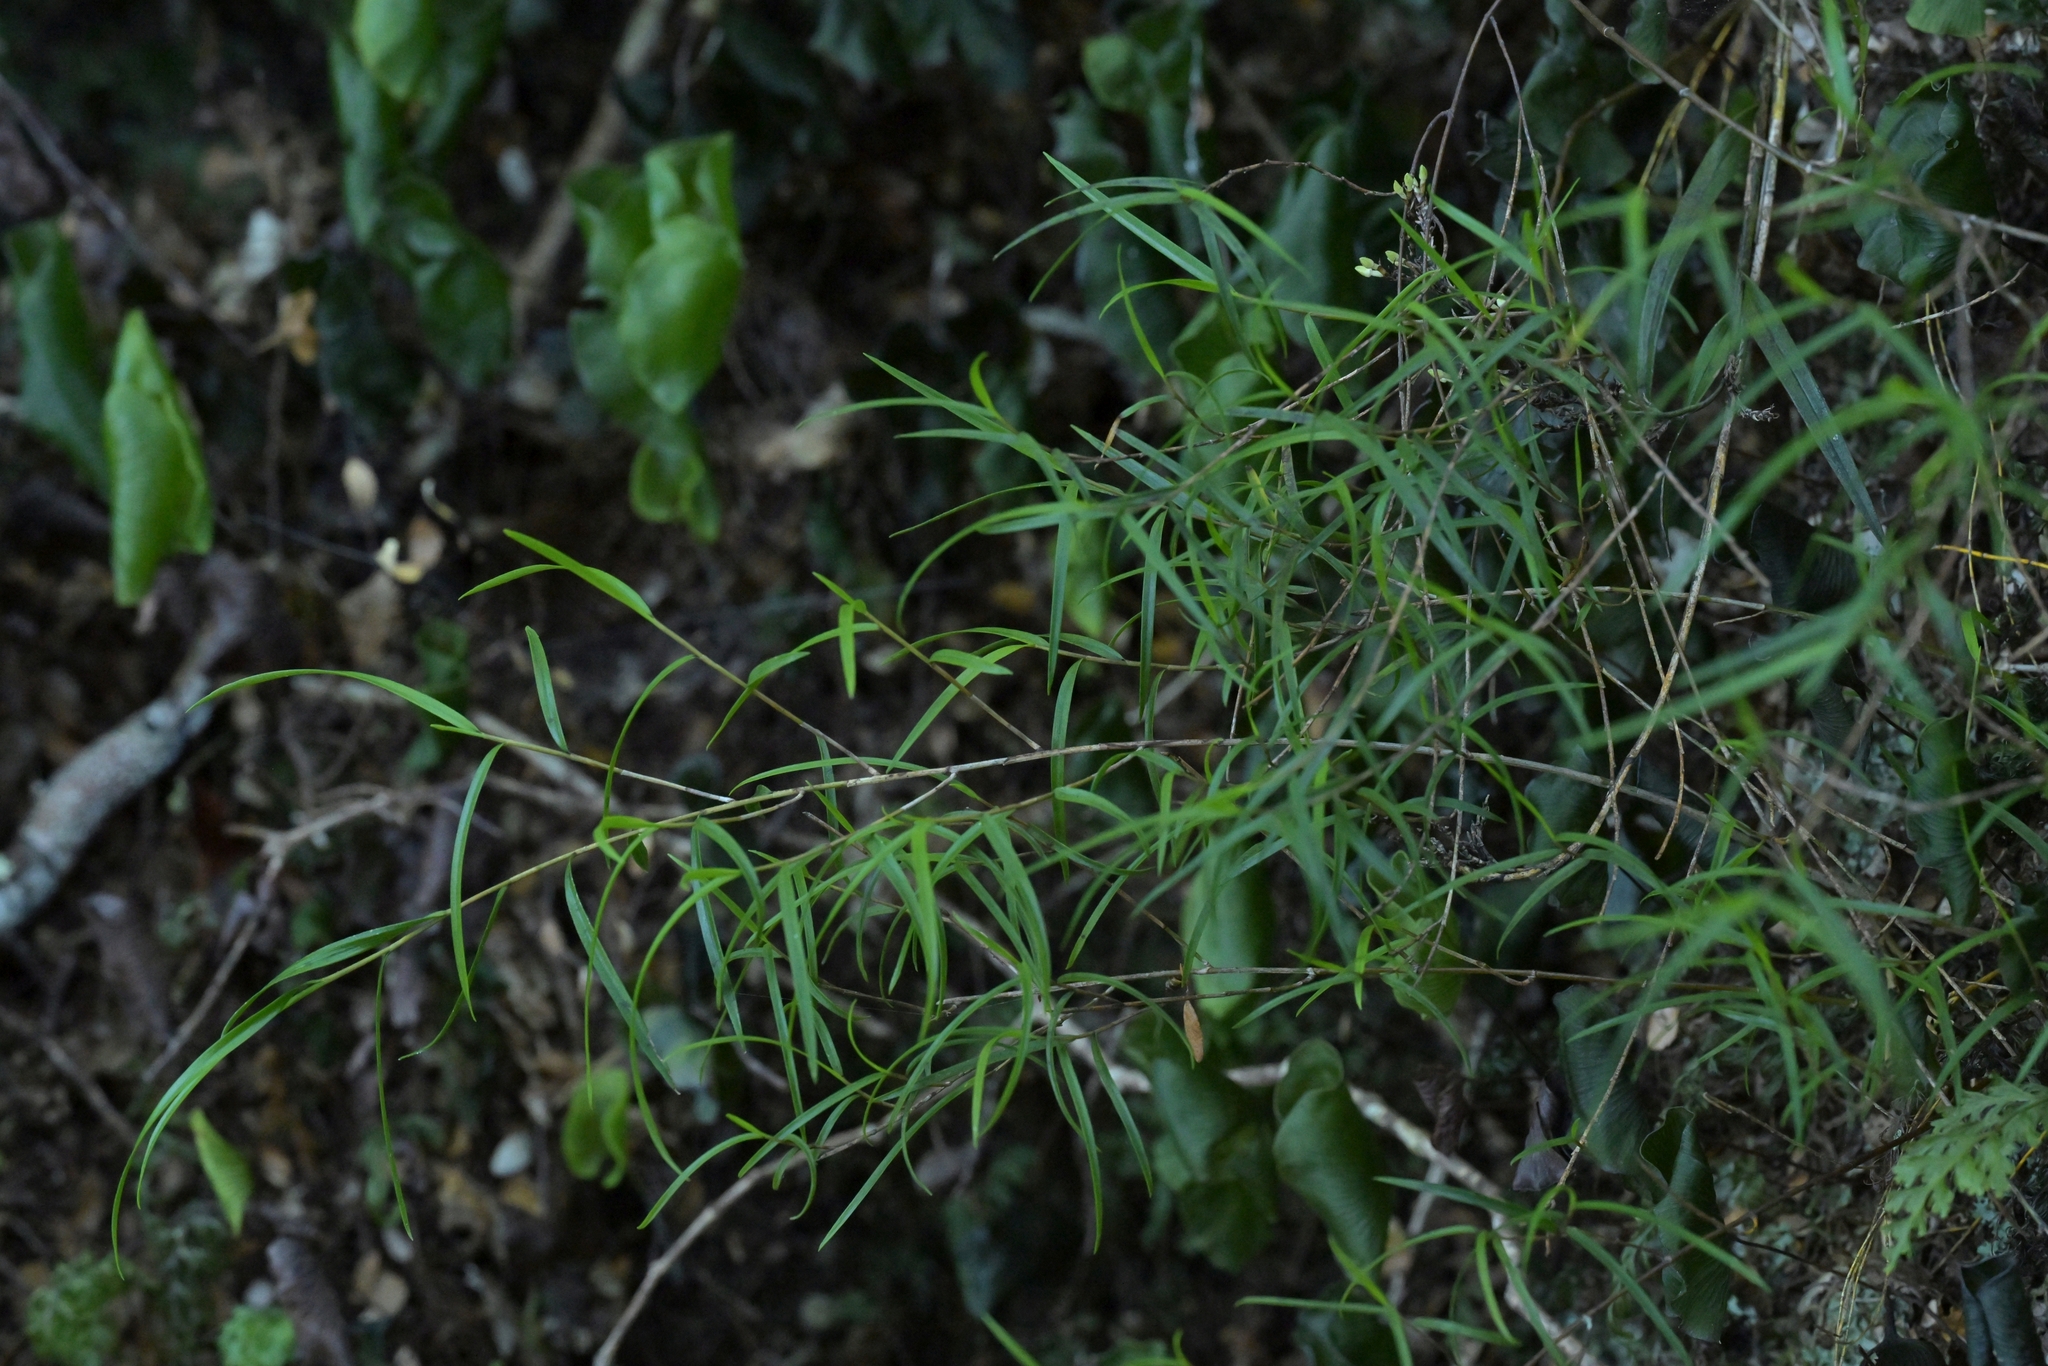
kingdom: Plantae
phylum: Tracheophyta
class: Liliopsida
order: Asparagales
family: Orchidaceae
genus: Dendrobium
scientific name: Dendrobium cunninghamii
